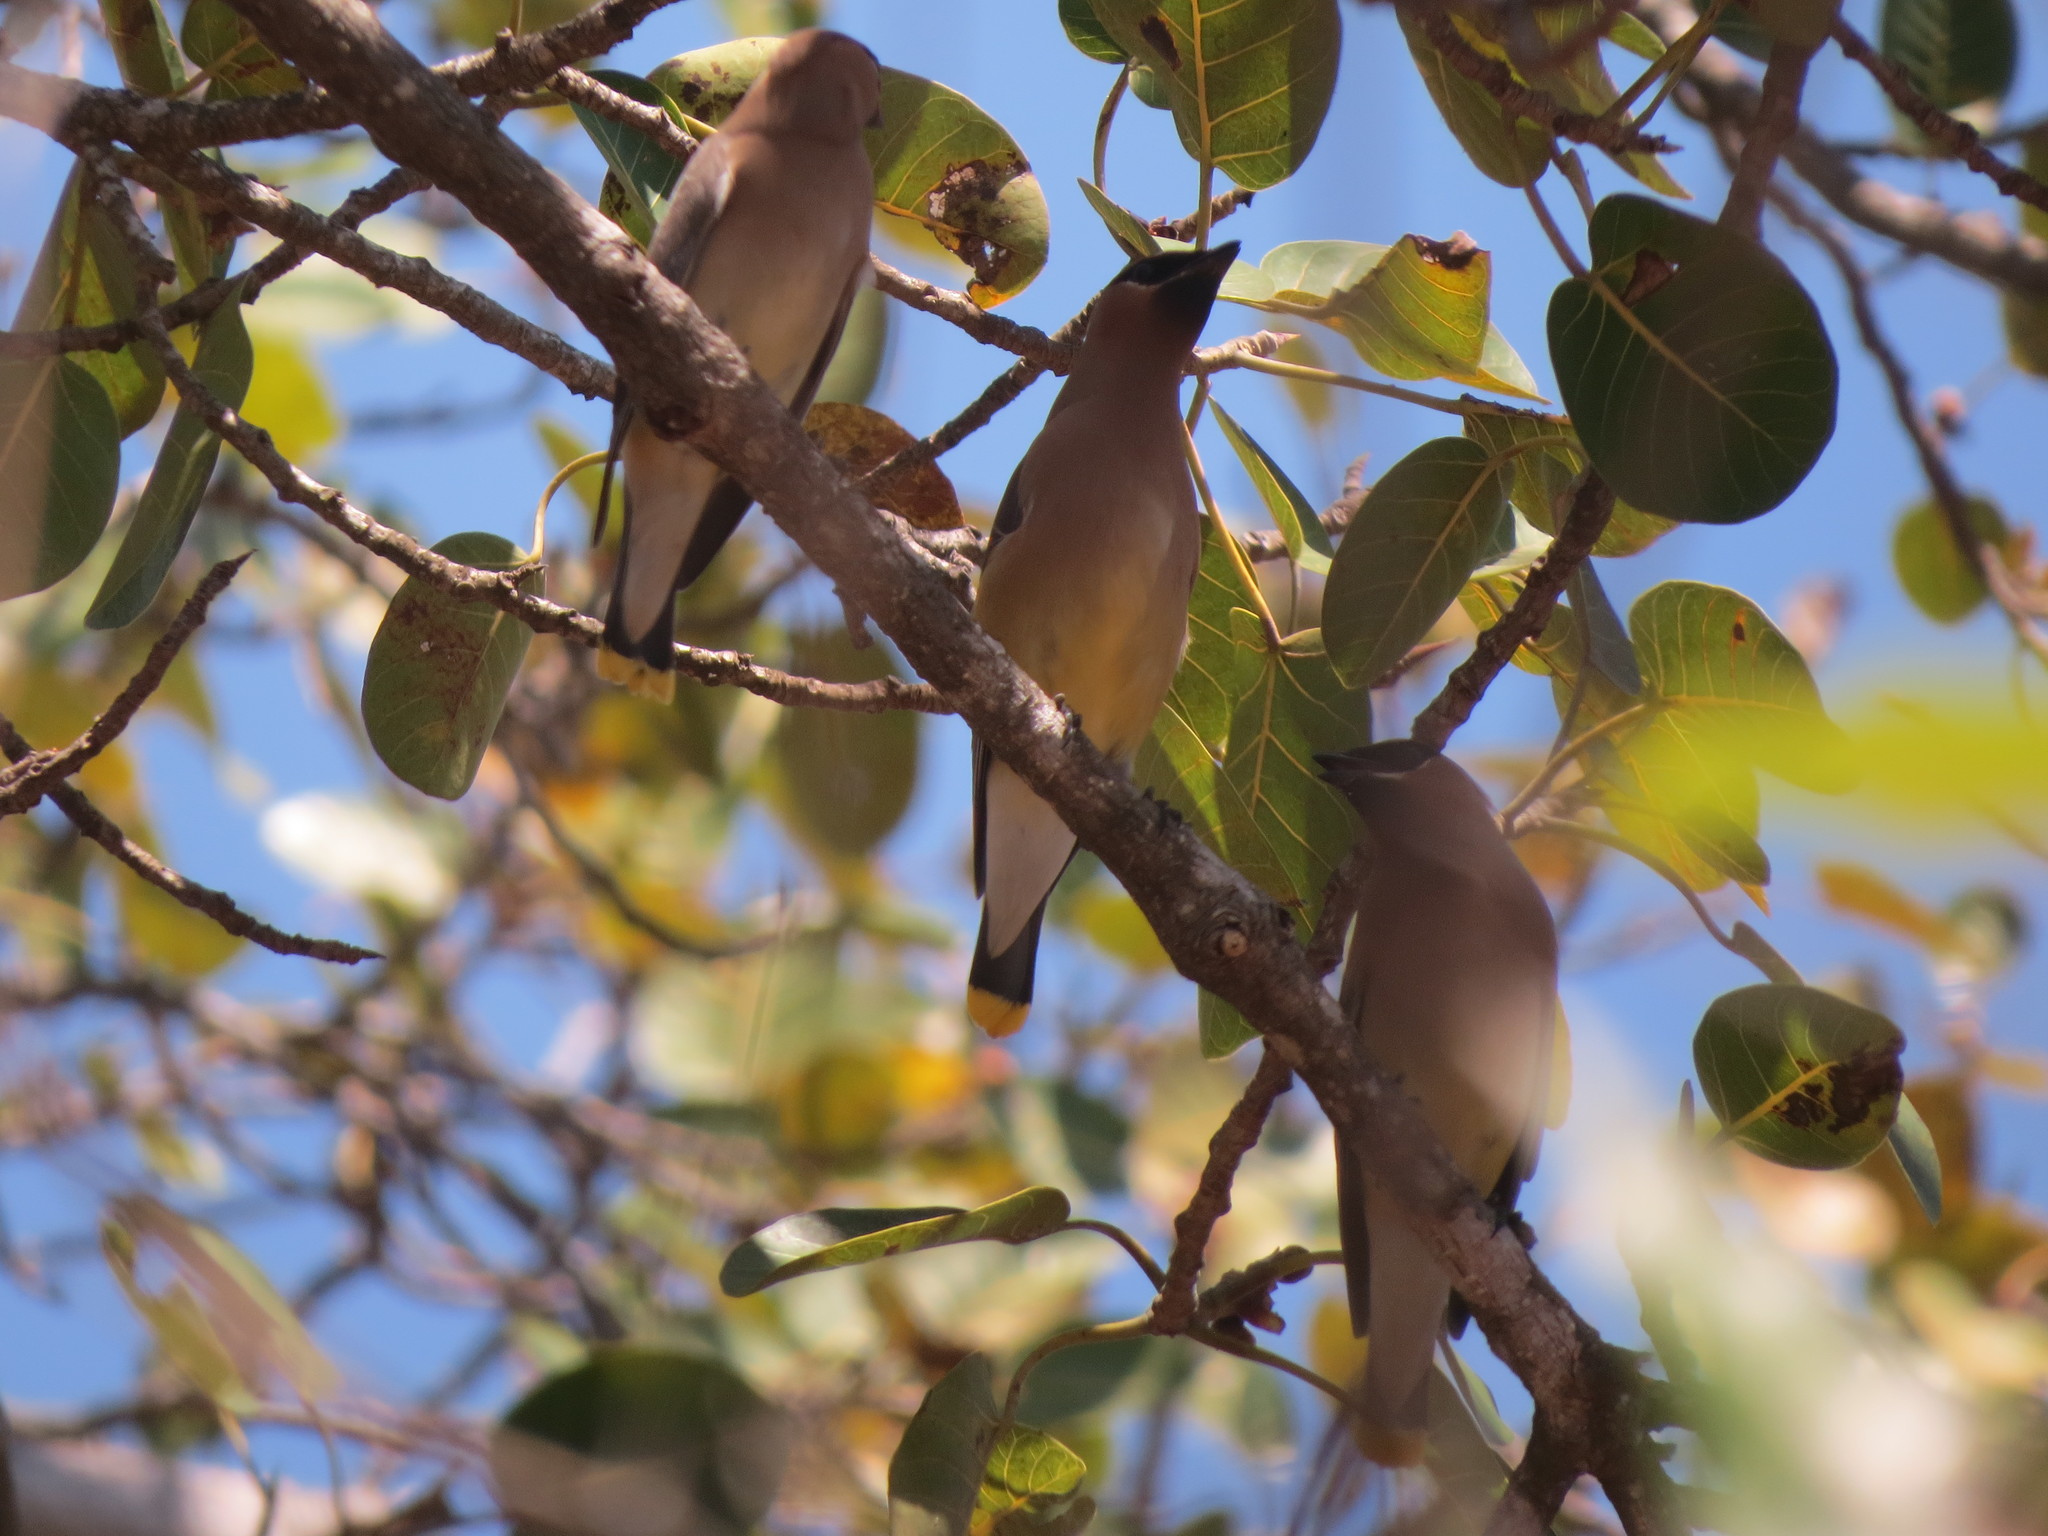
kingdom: Animalia
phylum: Chordata
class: Aves
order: Passeriformes
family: Bombycillidae
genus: Bombycilla
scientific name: Bombycilla cedrorum
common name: Cedar waxwing
